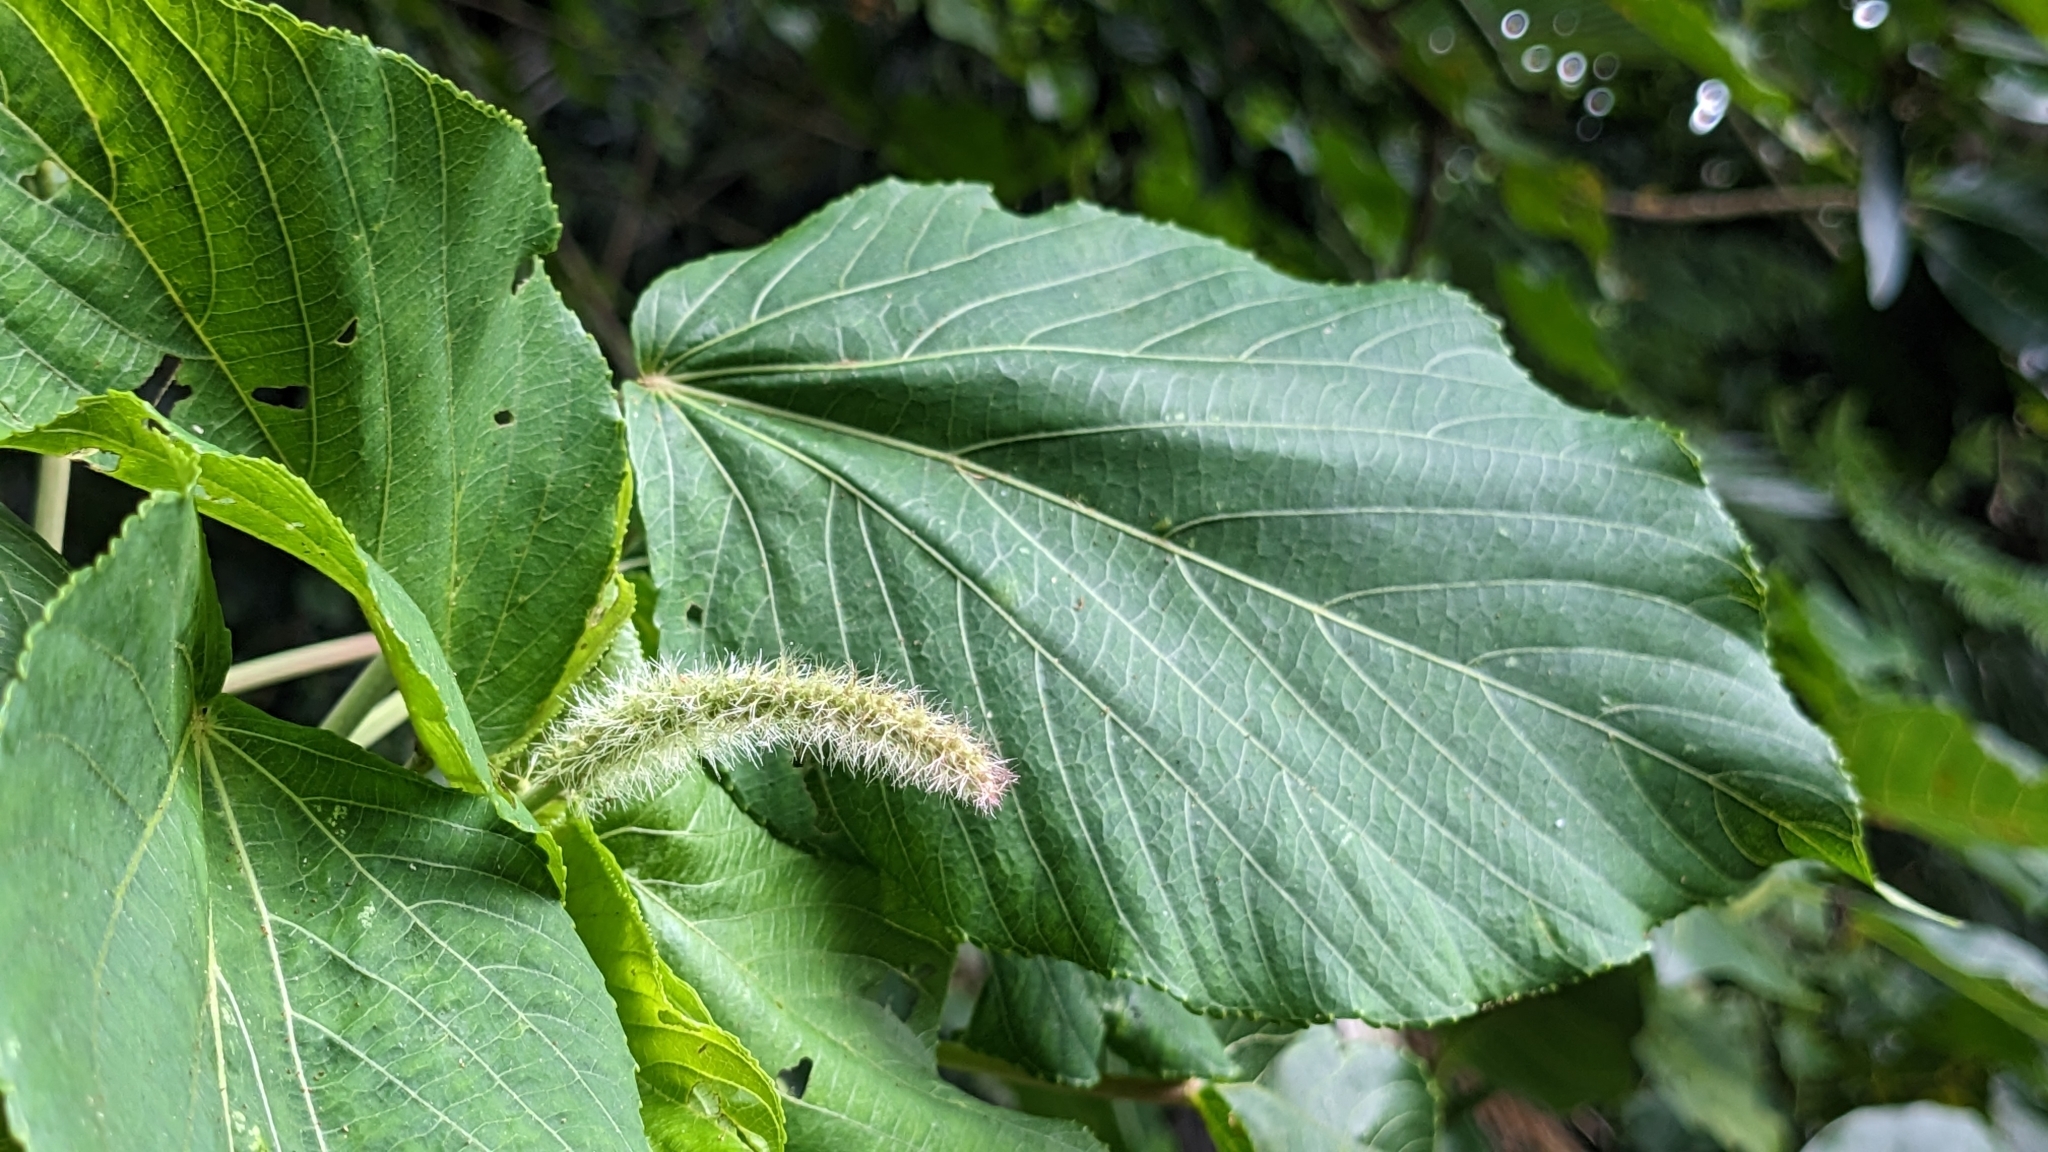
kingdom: Plantae
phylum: Tracheophyta
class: Magnoliopsida
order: Malpighiales
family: Euphorbiaceae
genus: Acalypha
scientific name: Acalypha grandibracteata
